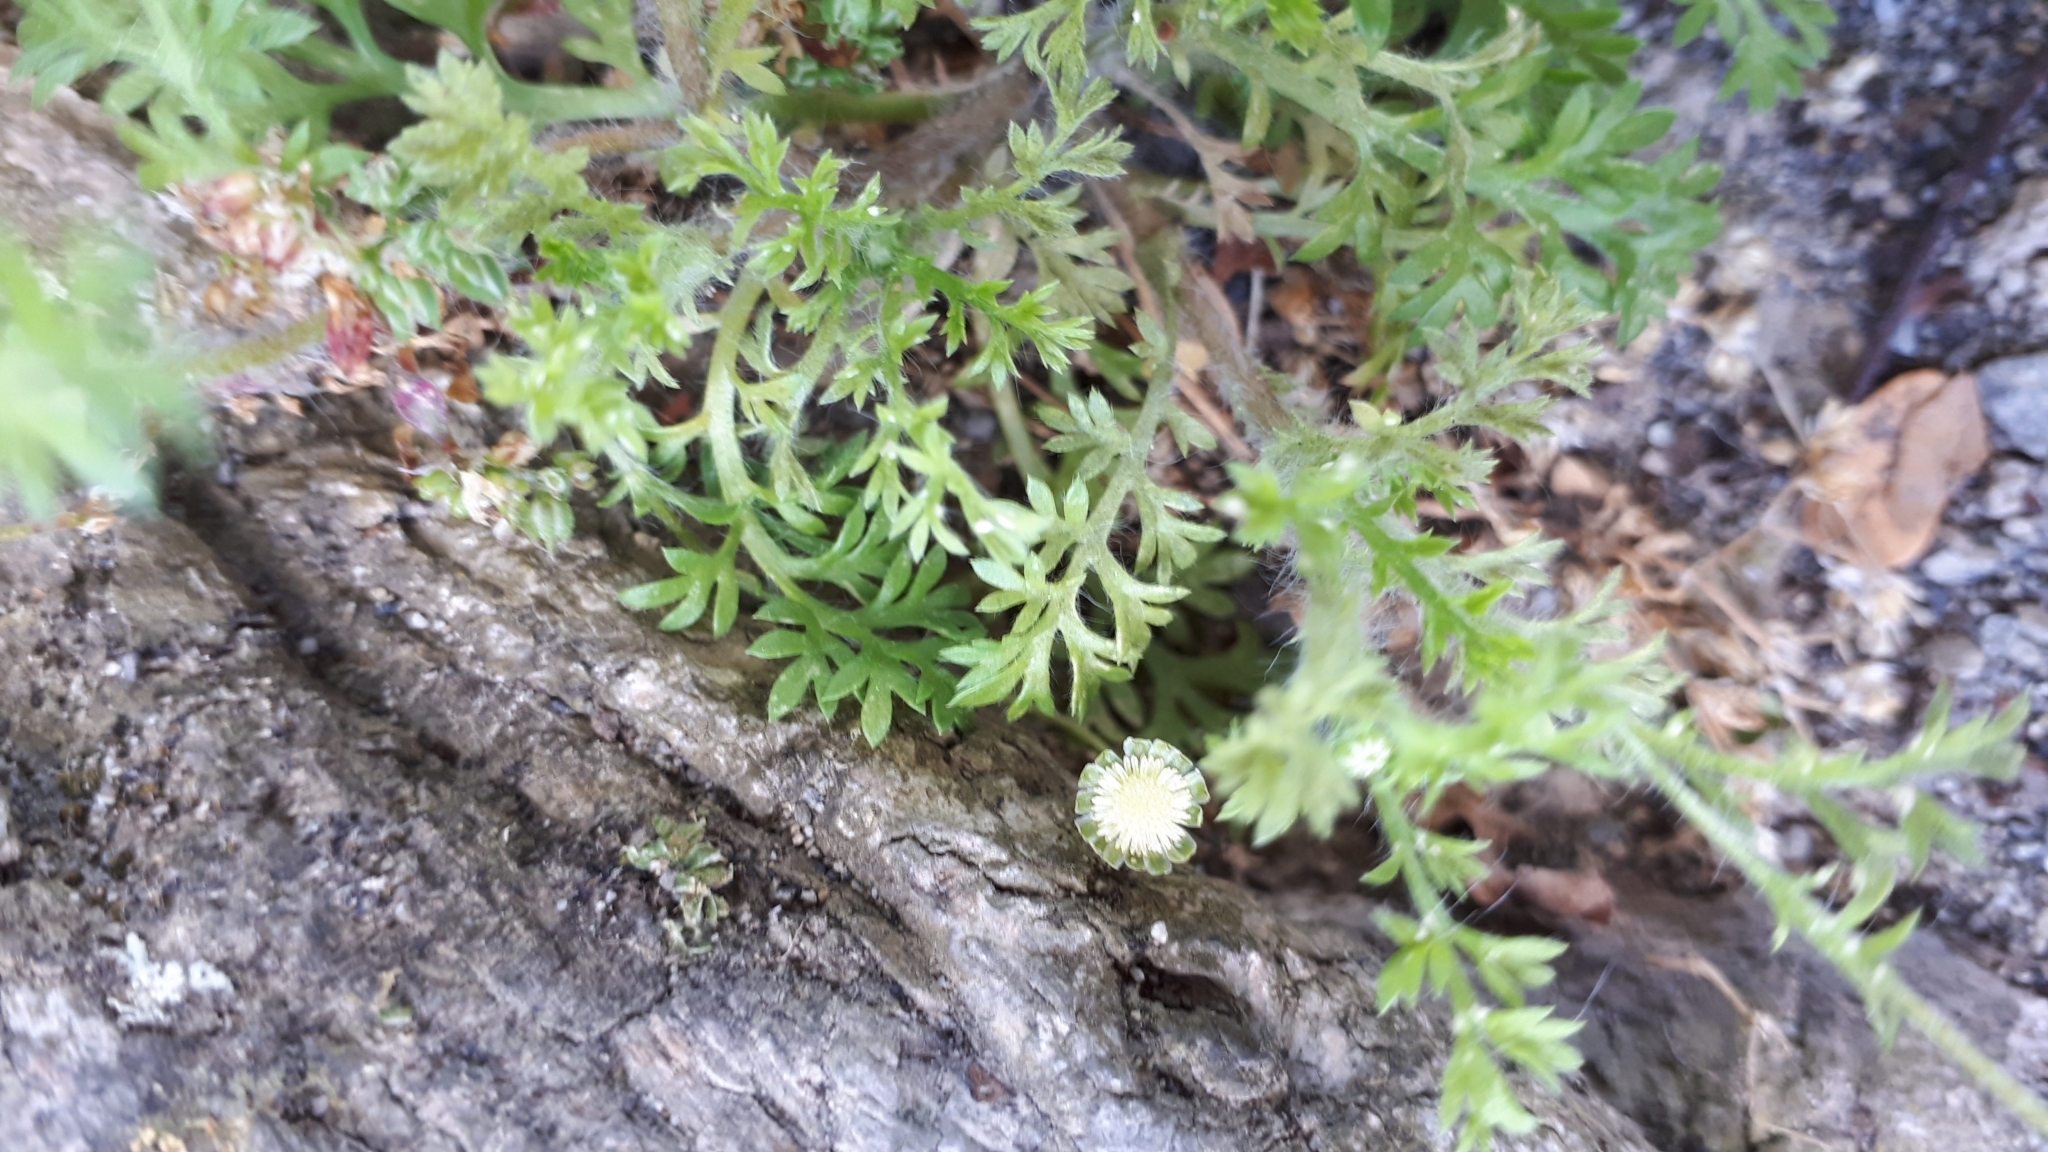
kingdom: Plantae
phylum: Tracheophyta
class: Magnoliopsida
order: Asterales
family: Asteraceae
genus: Cotula
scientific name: Cotula australis
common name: Australian waterbuttons
